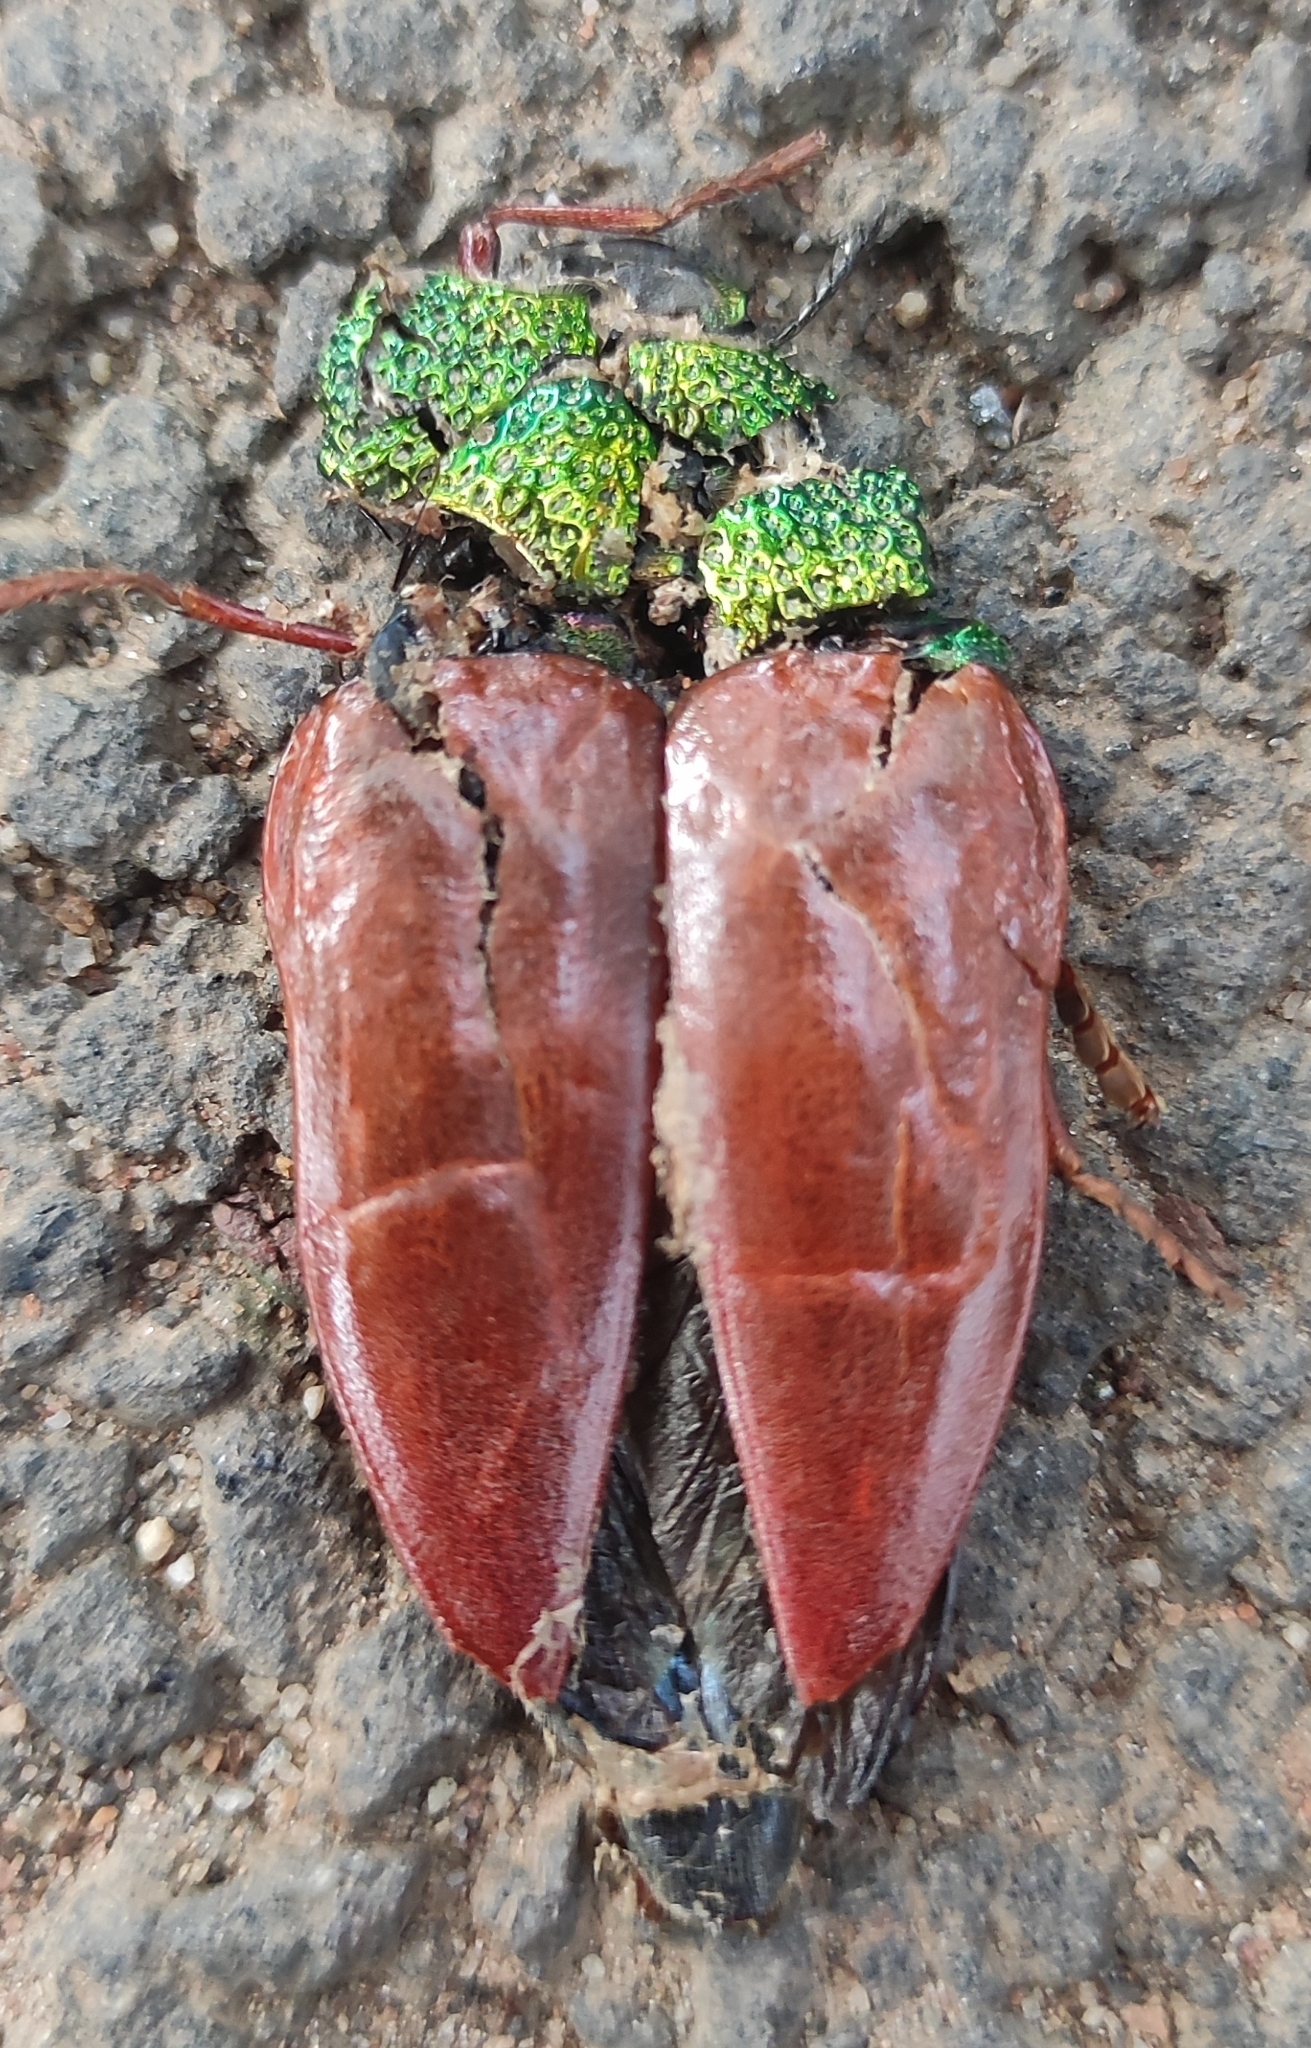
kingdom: Animalia
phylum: Arthropoda
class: Insecta
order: Coleoptera
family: Buprestidae
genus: Sternocera
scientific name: Sternocera chrysis
